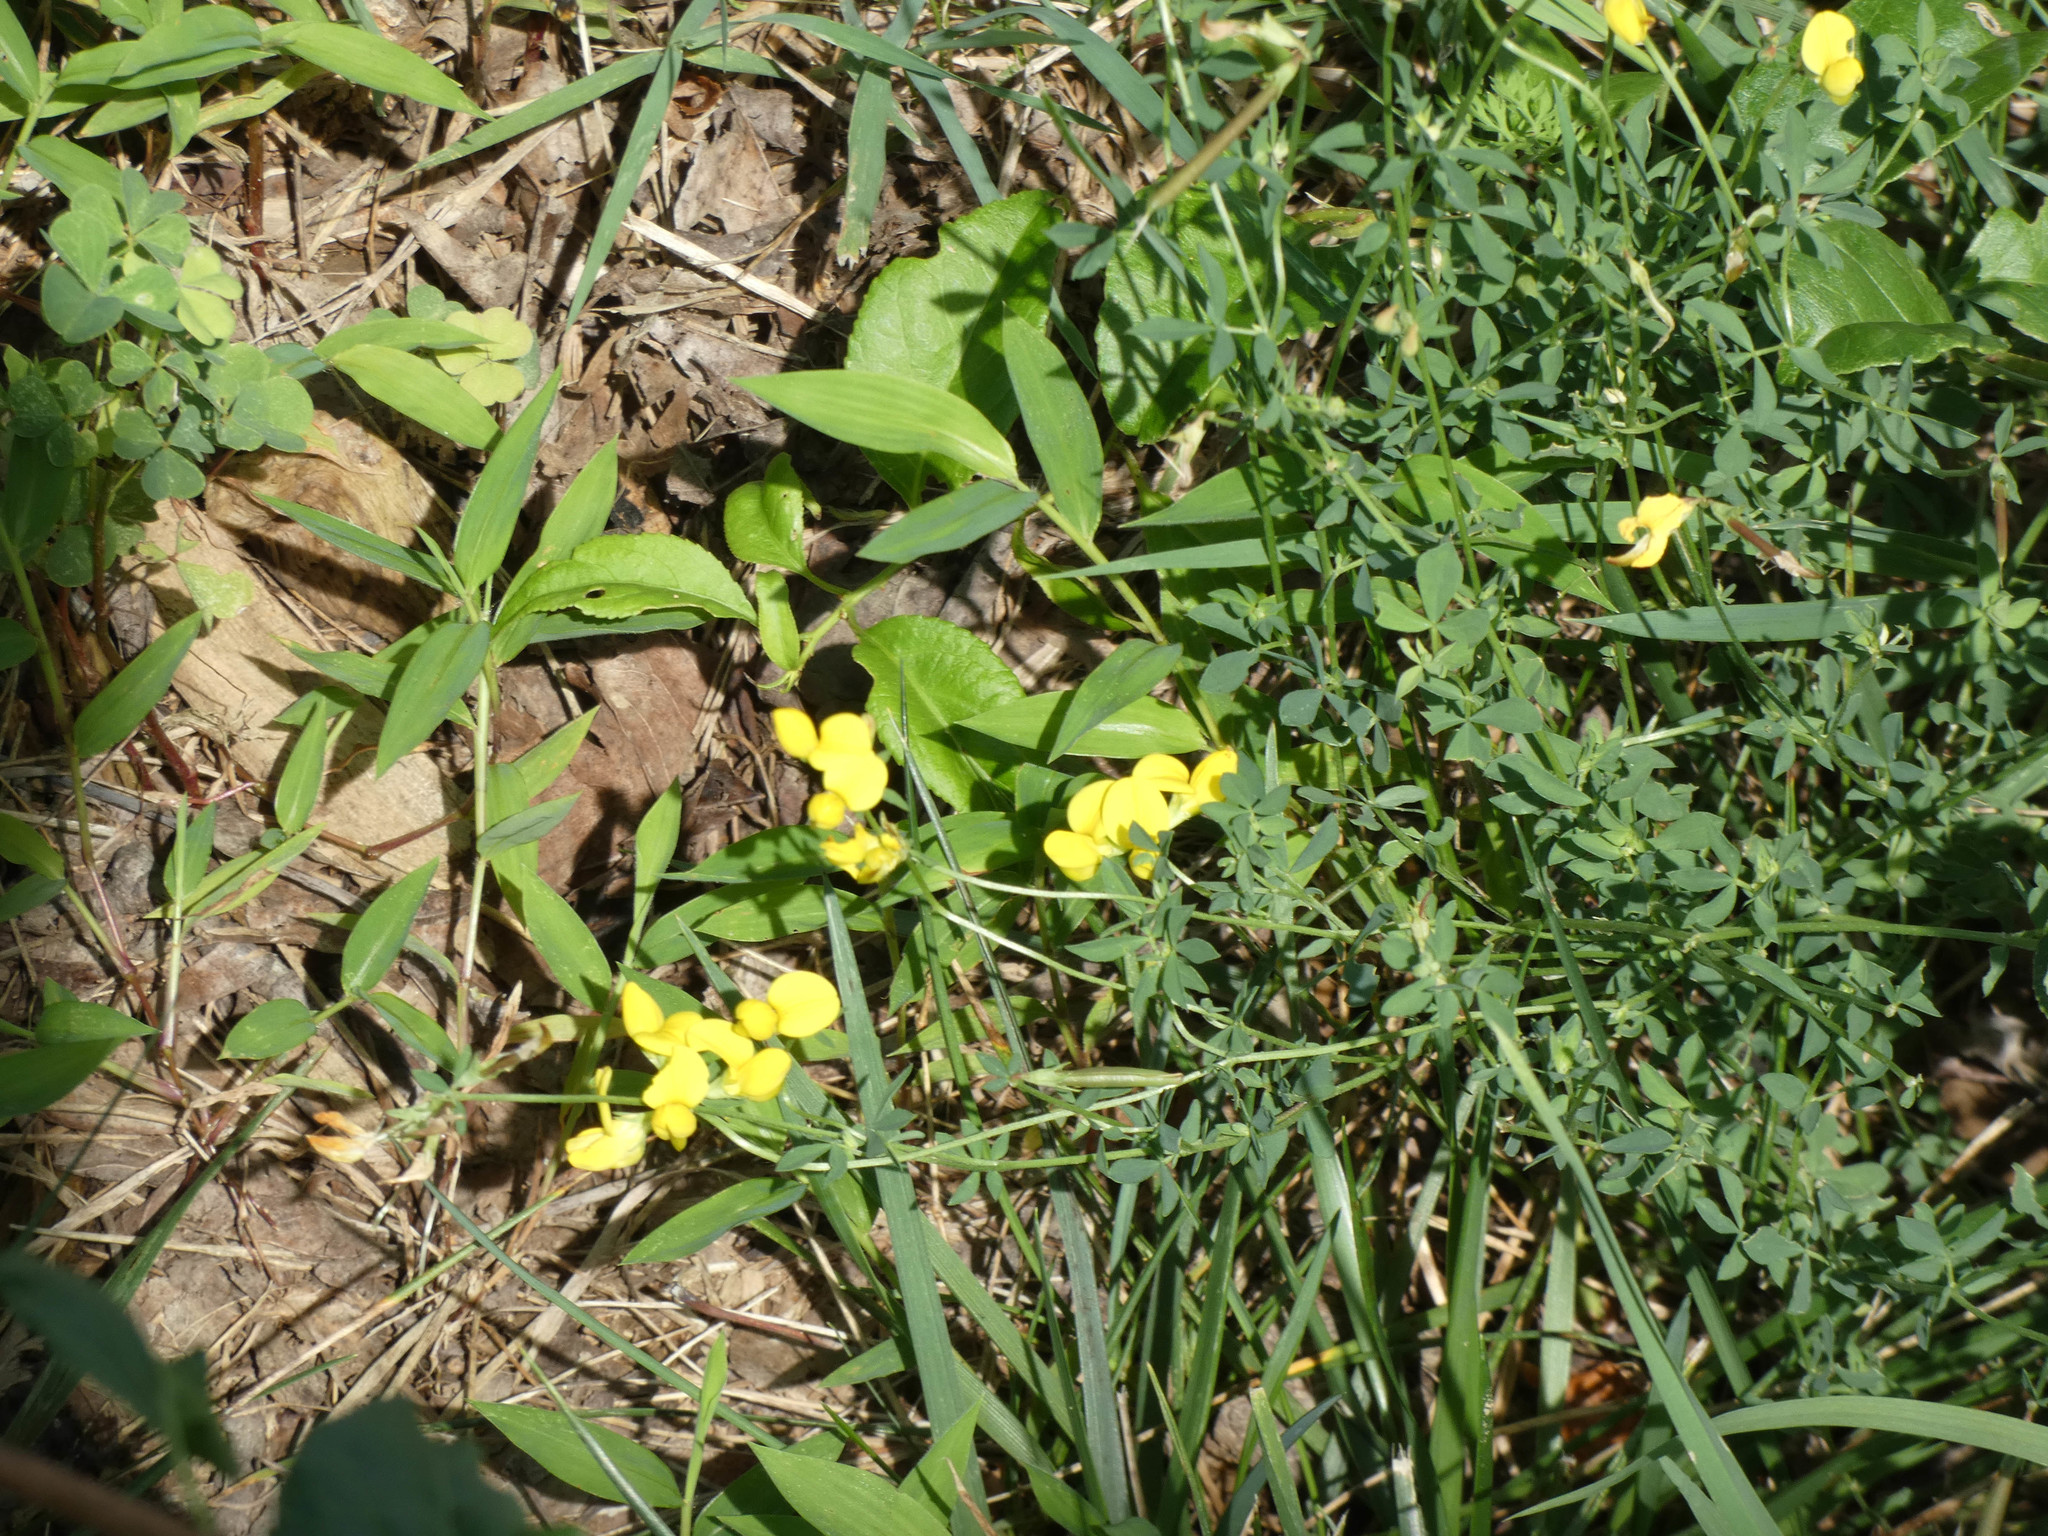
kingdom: Plantae
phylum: Tracheophyta
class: Magnoliopsida
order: Fabales
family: Fabaceae
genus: Lotus
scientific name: Lotus corniculatus
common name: Common bird's-foot-trefoil
